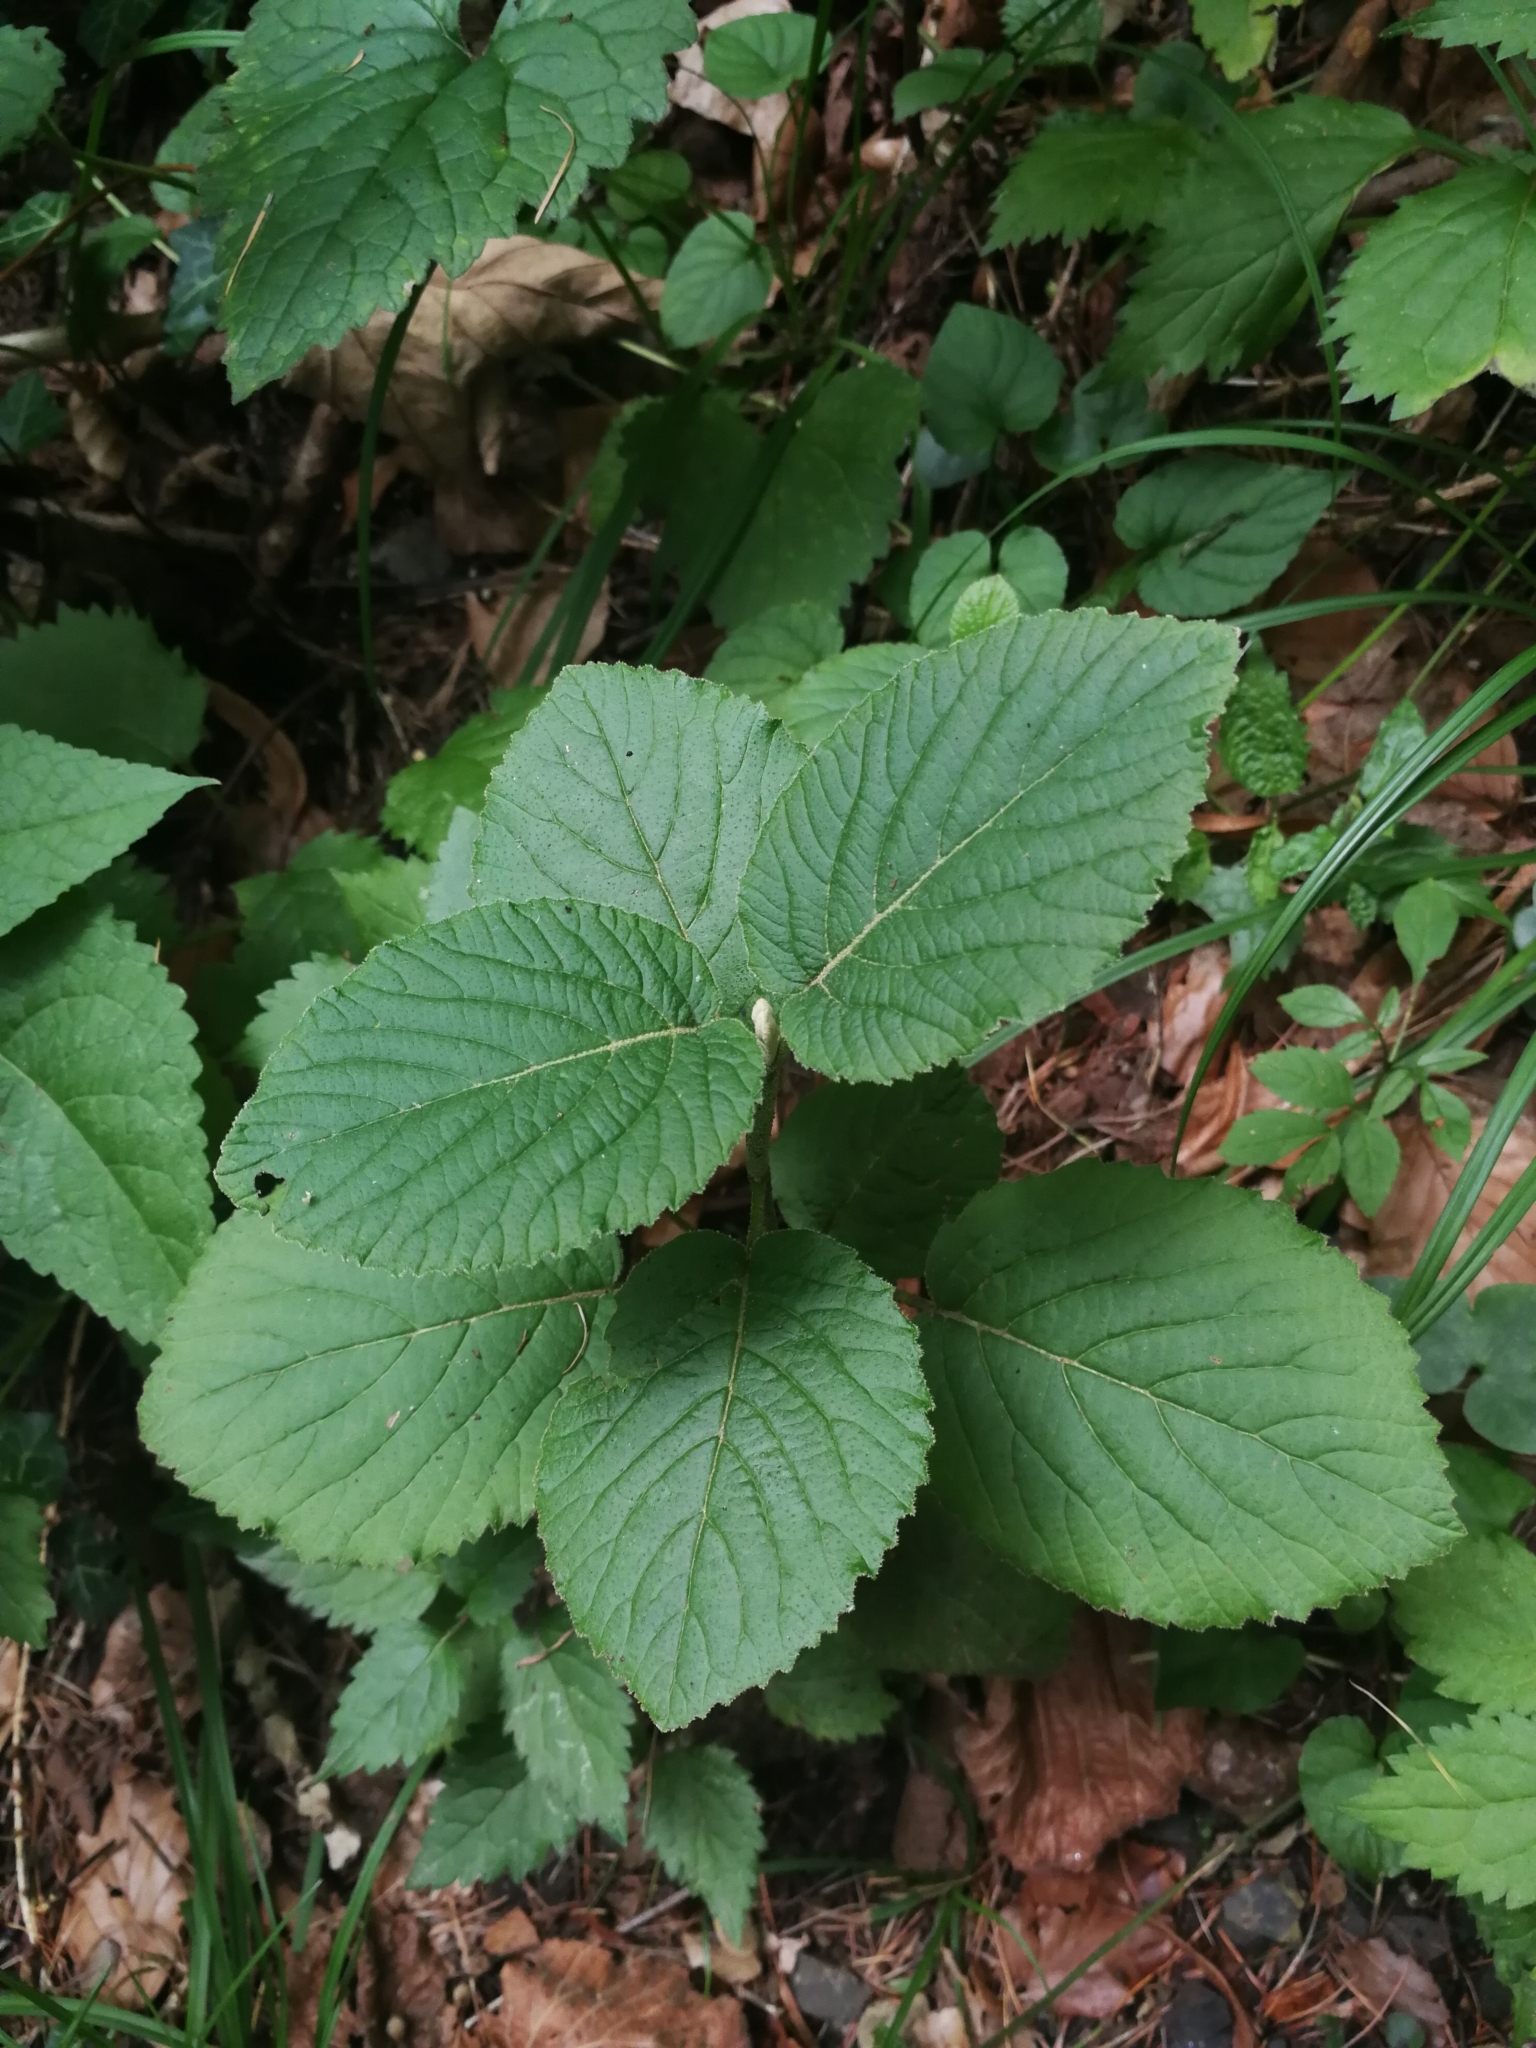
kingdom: Plantae
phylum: Tracheophyta
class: Magnoliopsida
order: Dipsacales
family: Viburnaceae
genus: Viburnum
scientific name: Viburnum lantana
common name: Wayfaring tree
